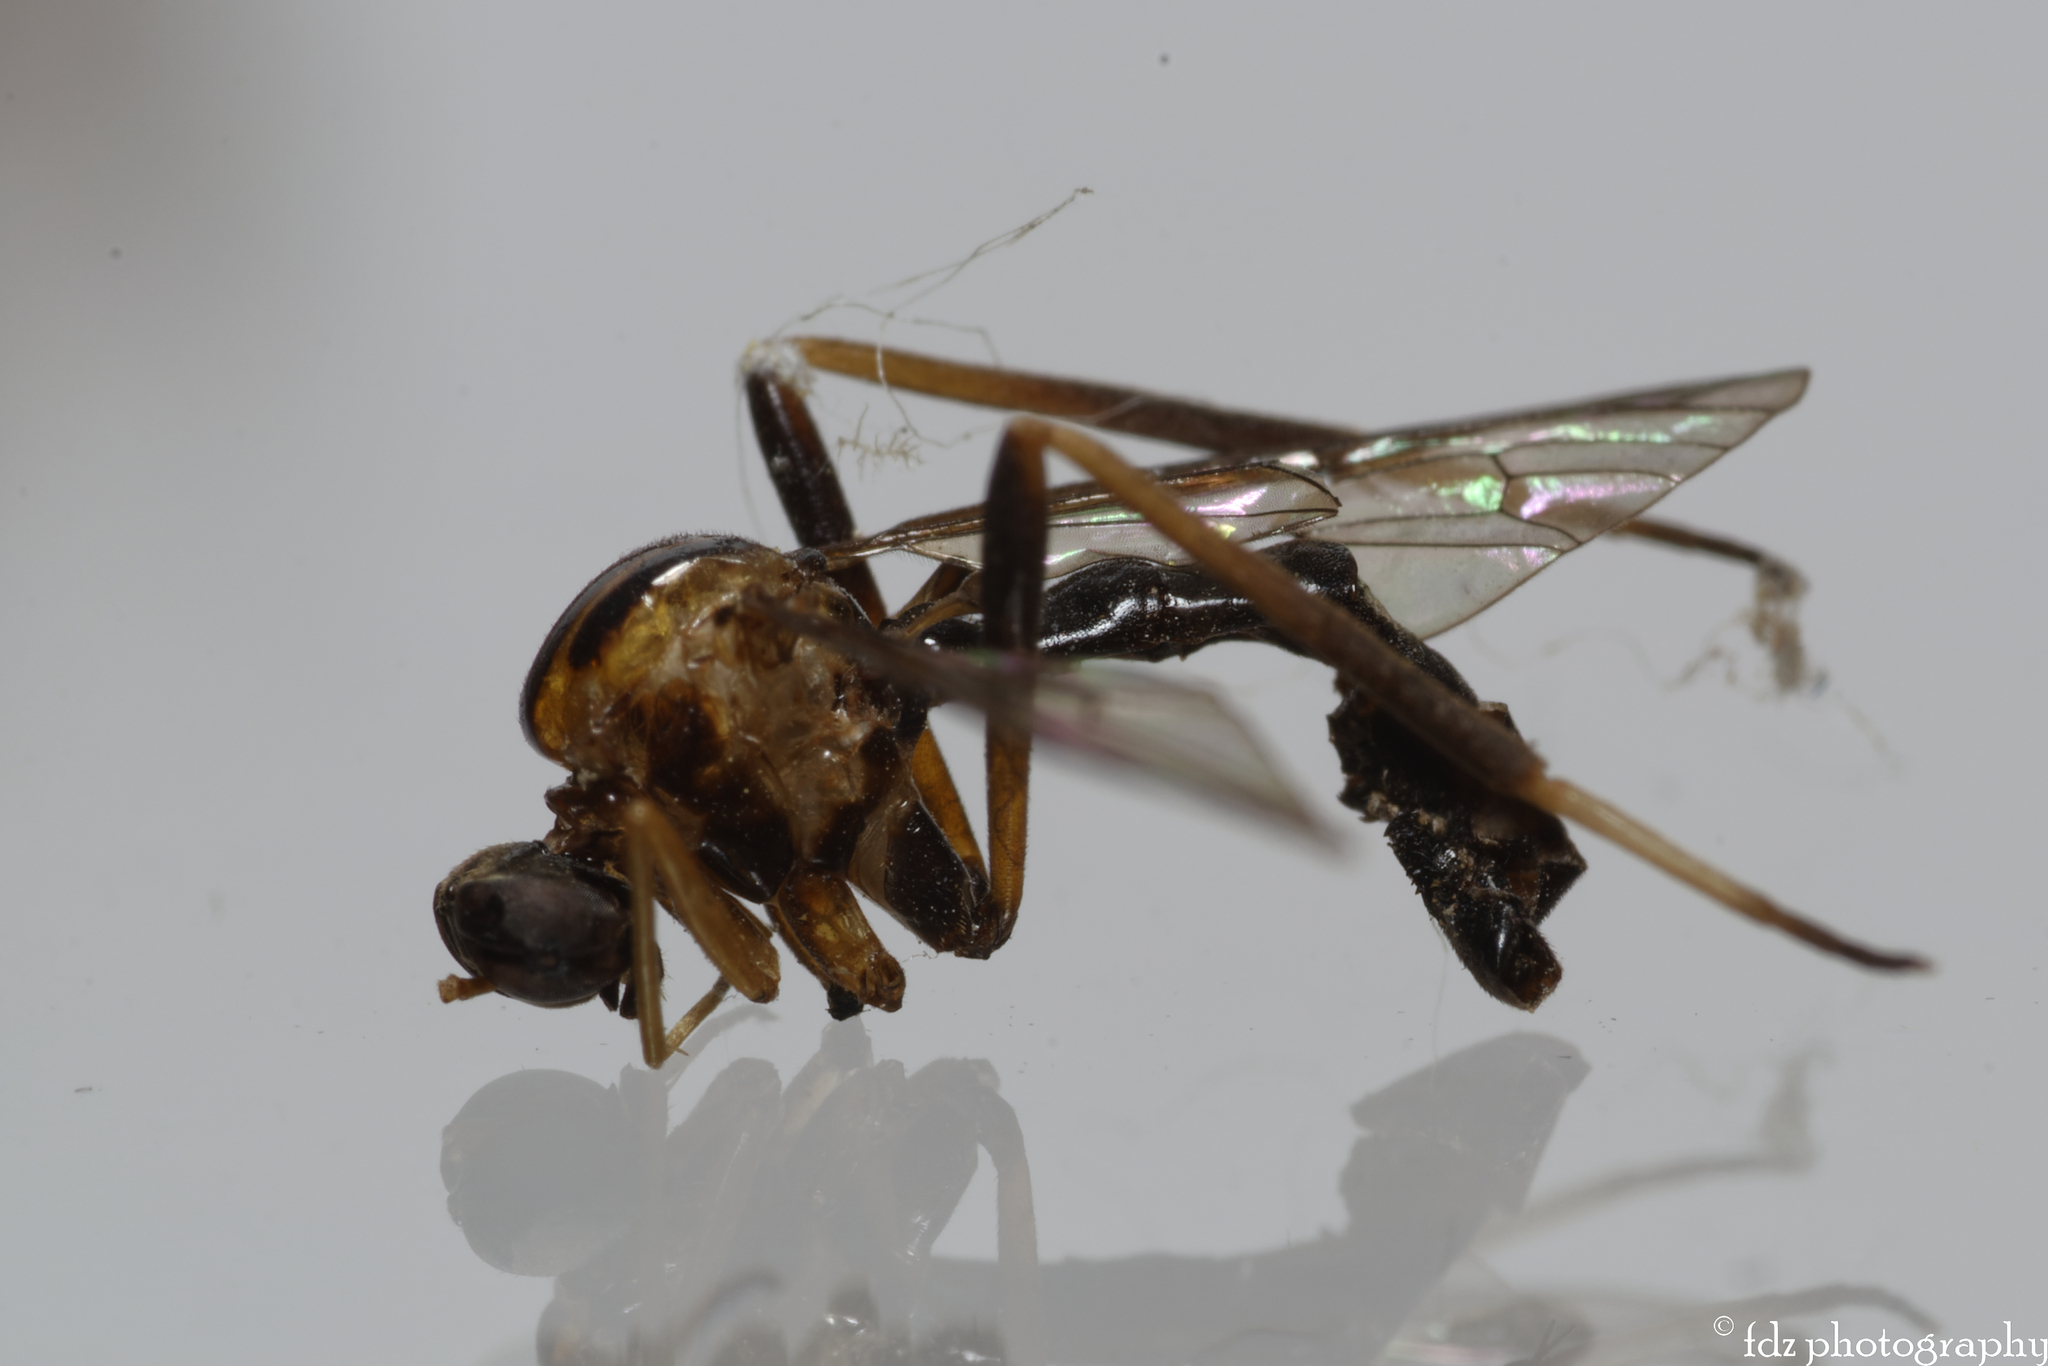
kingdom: Animalia
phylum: Arthropoda
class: Insecta
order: Diptera
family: Vermileonidae
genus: Vermileo
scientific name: Vermileo vermileo
